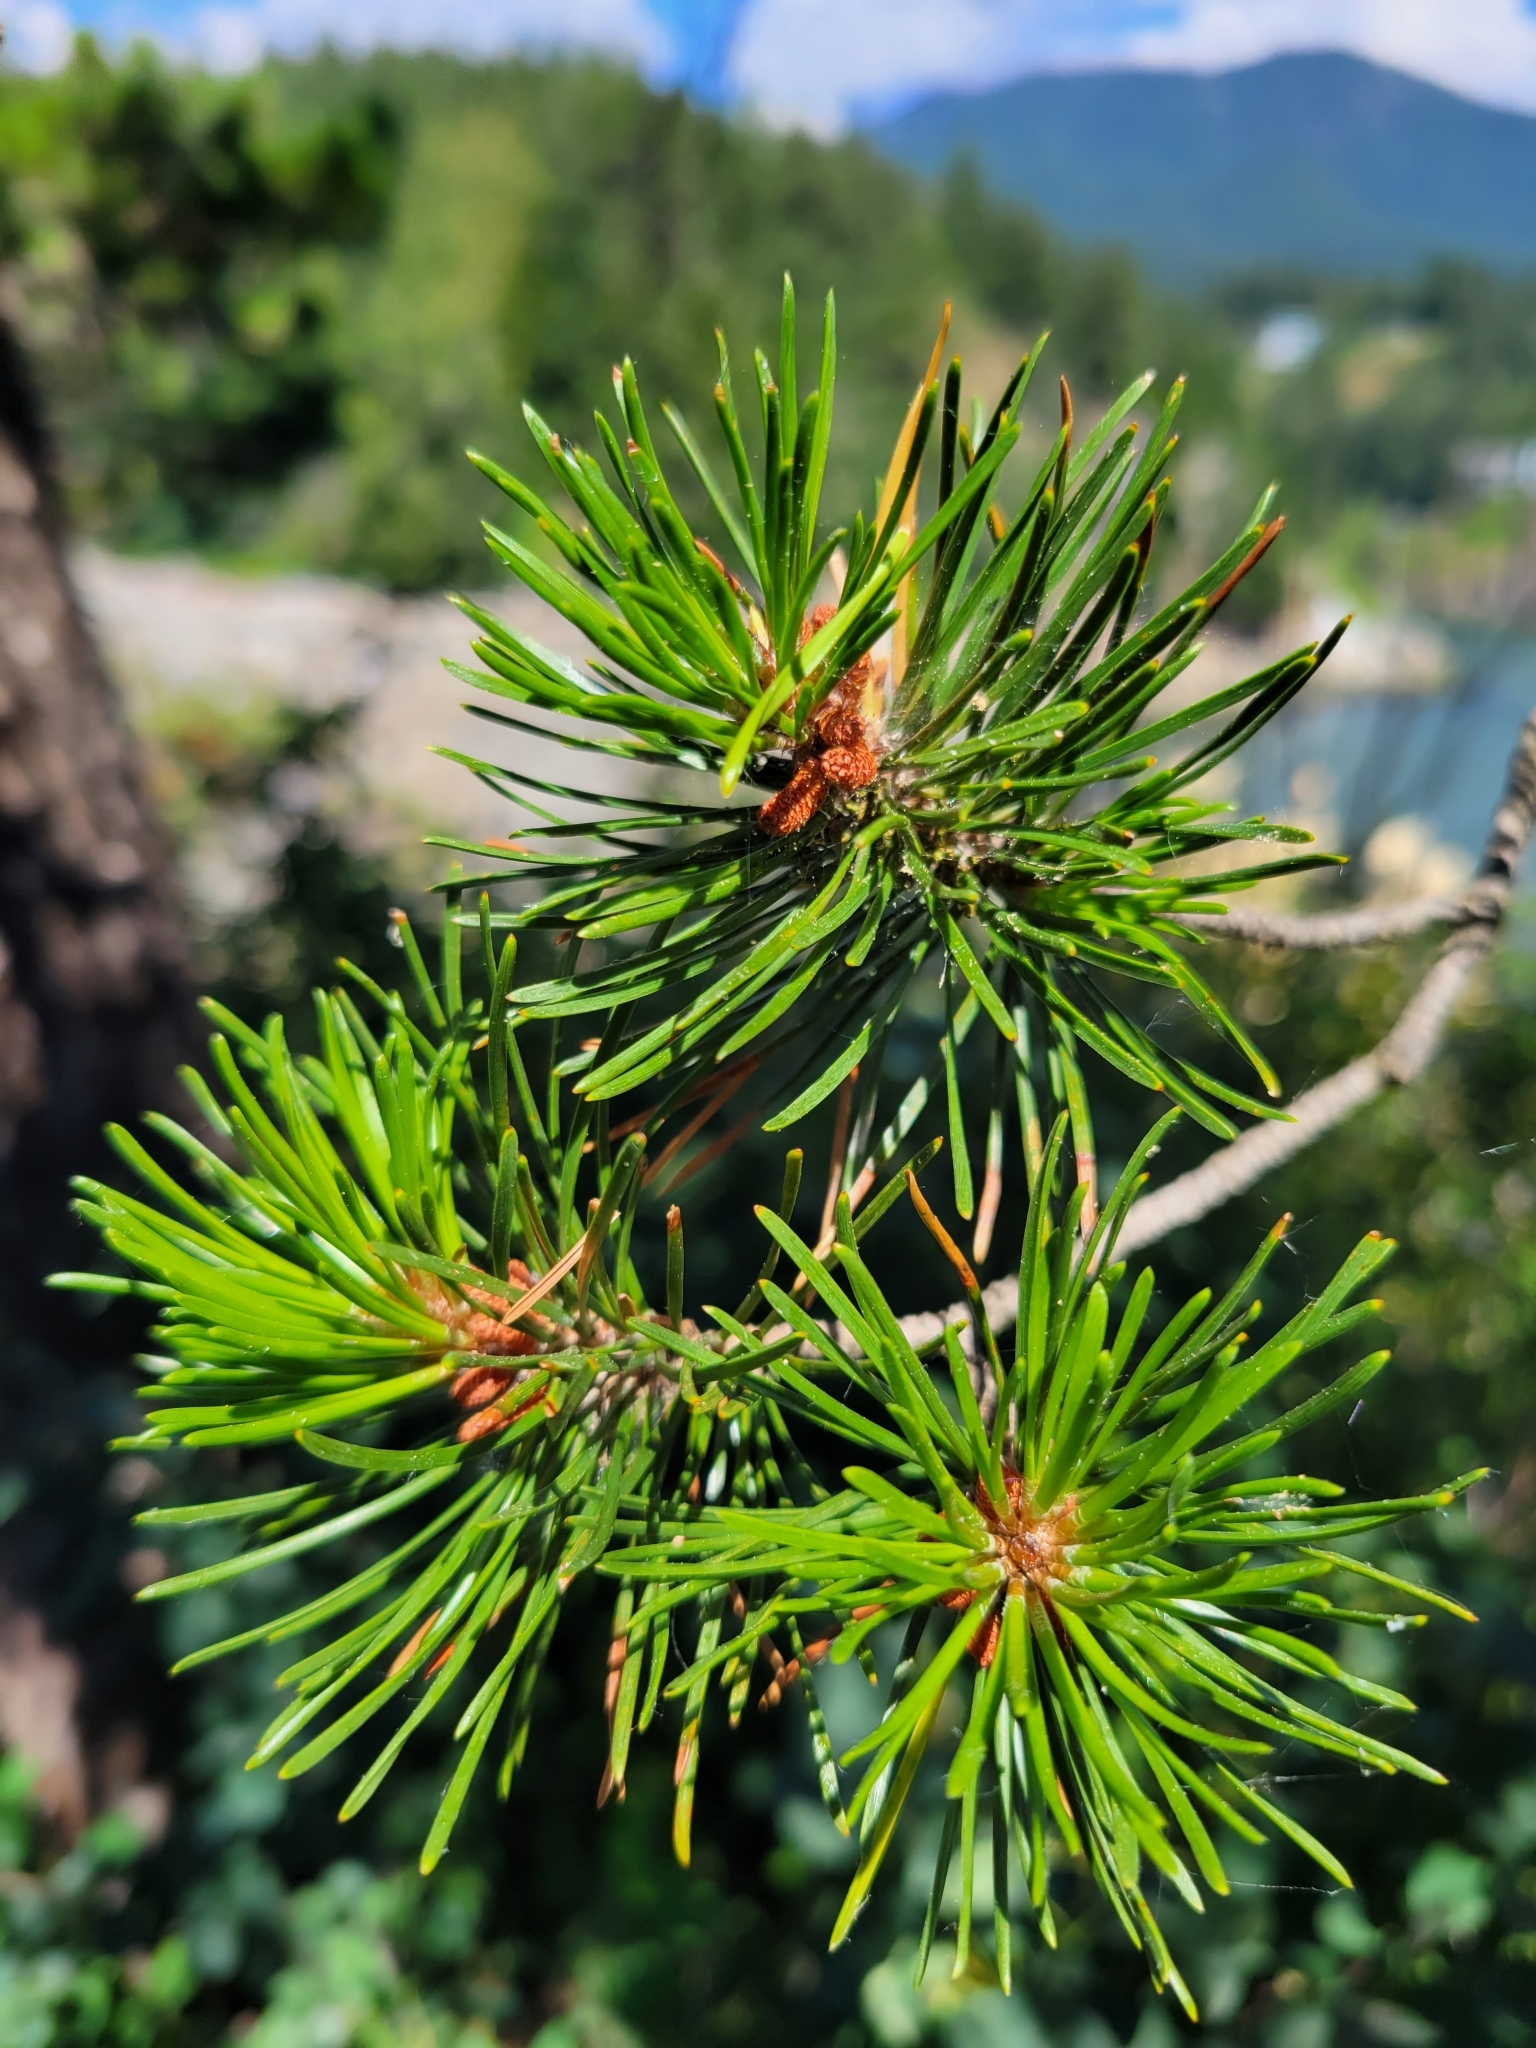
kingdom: Plantae
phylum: Tracheophyta
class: Pinopsida
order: Pinales
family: Pinaceae
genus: Pinus
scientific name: Pinus contorta
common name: Lodgepole pine
